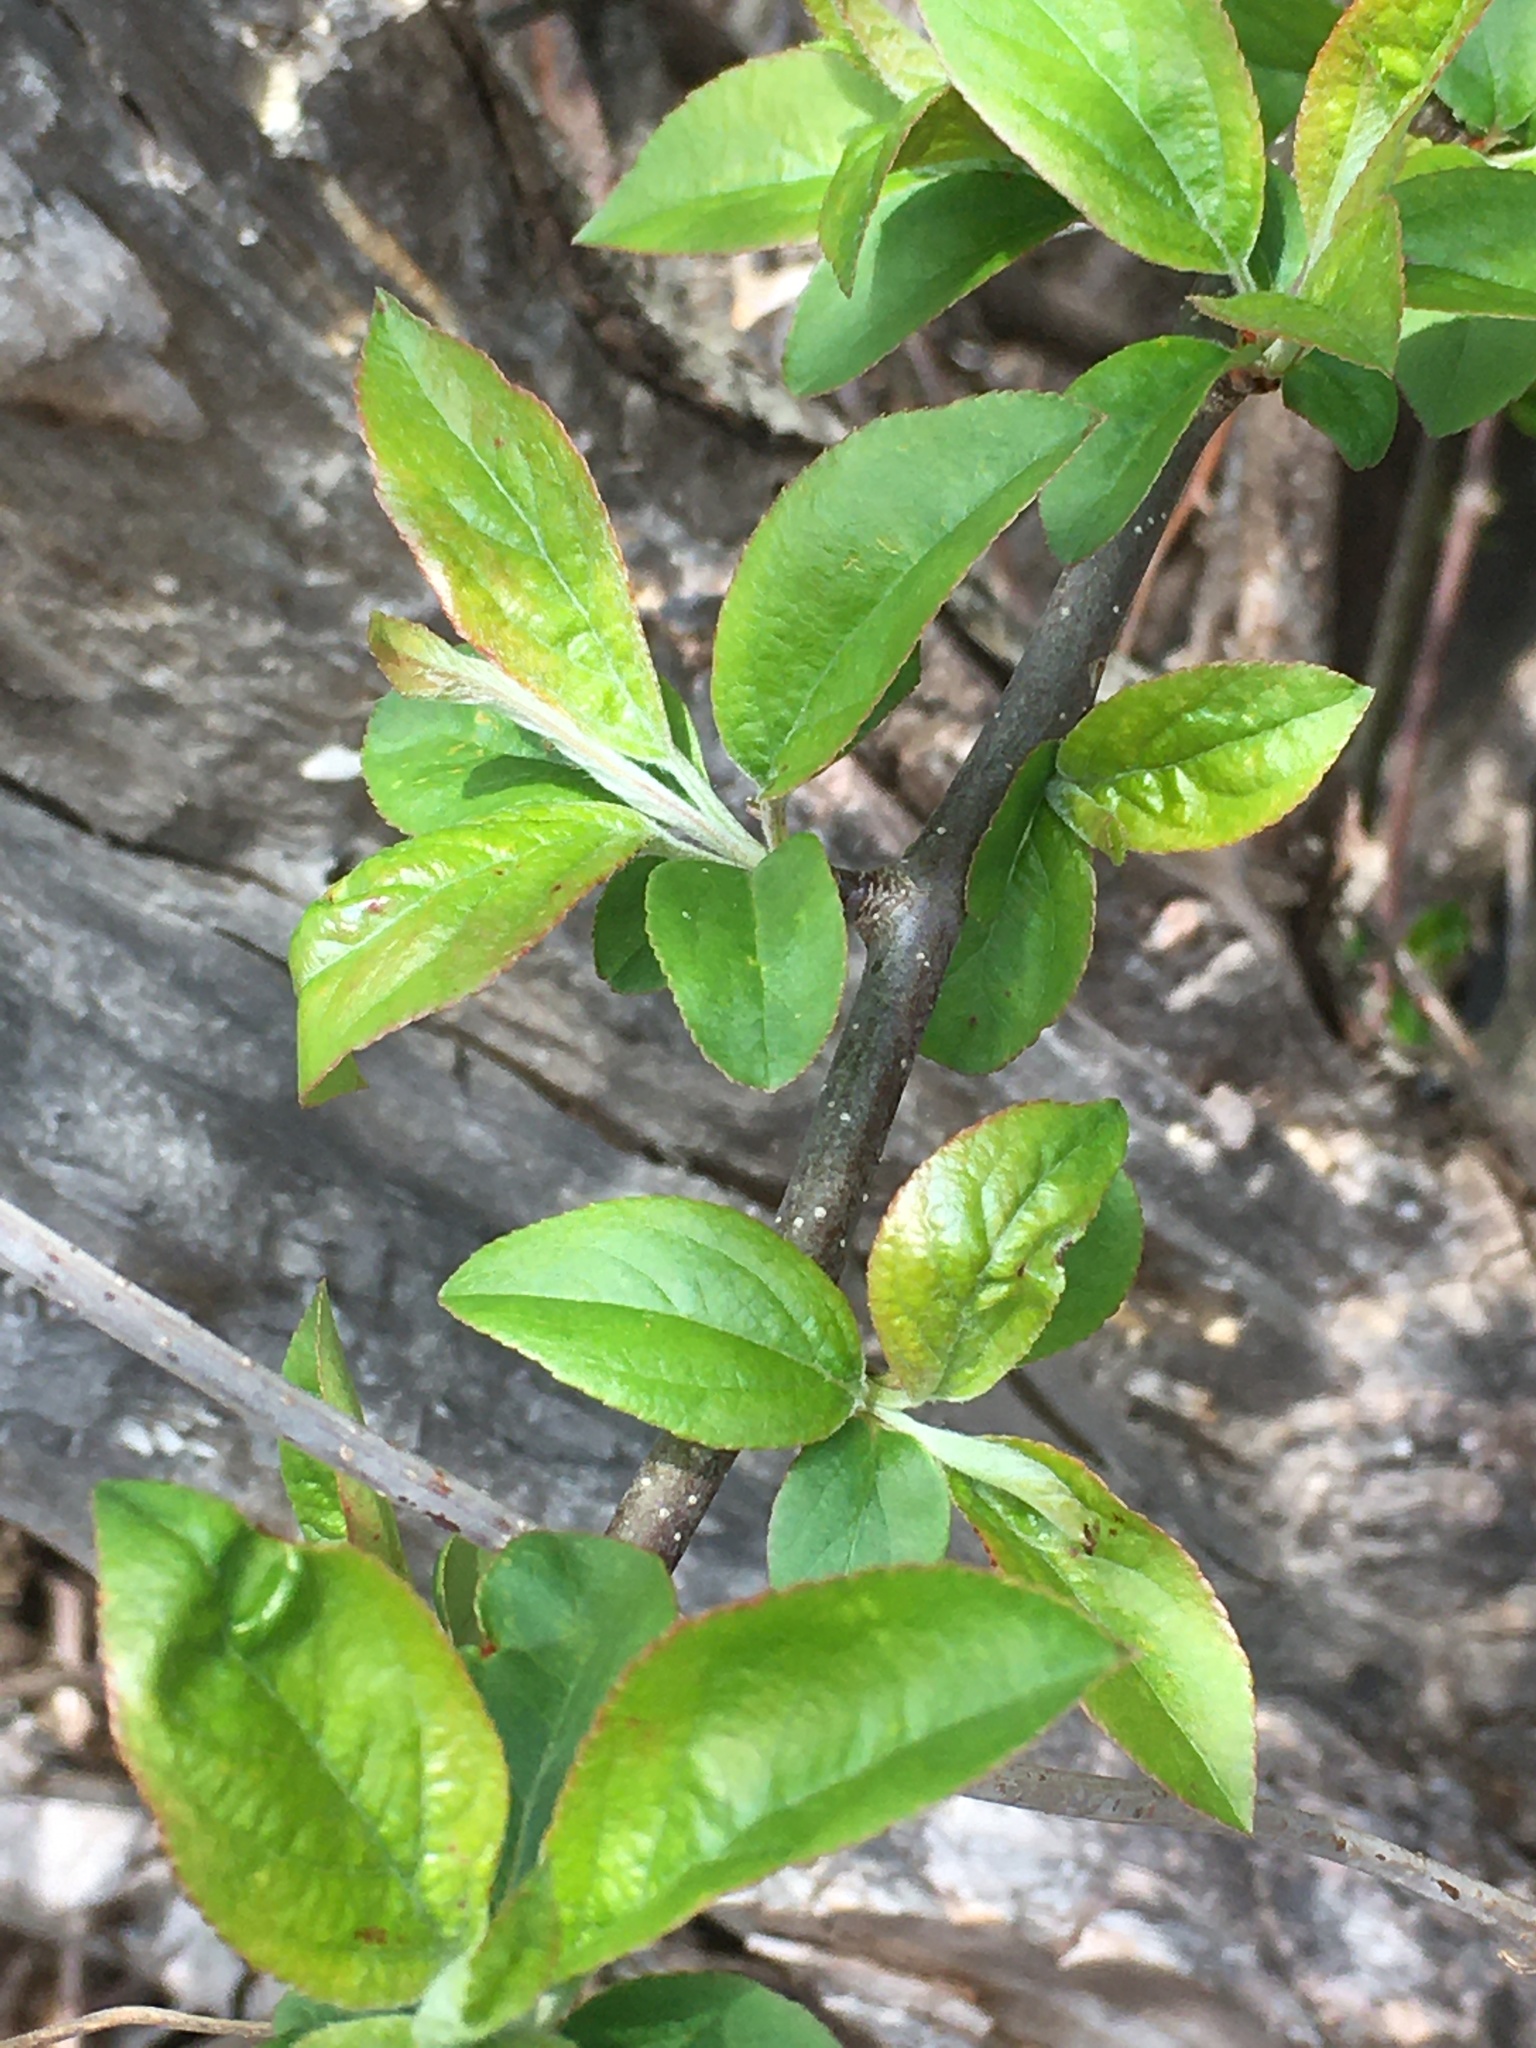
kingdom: Plantae
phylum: Tracheophyta
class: Magnoliopsida
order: Rosales
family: Rosaceae
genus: Aronia
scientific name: Aronia arbutifolia
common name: Red chokeberry
